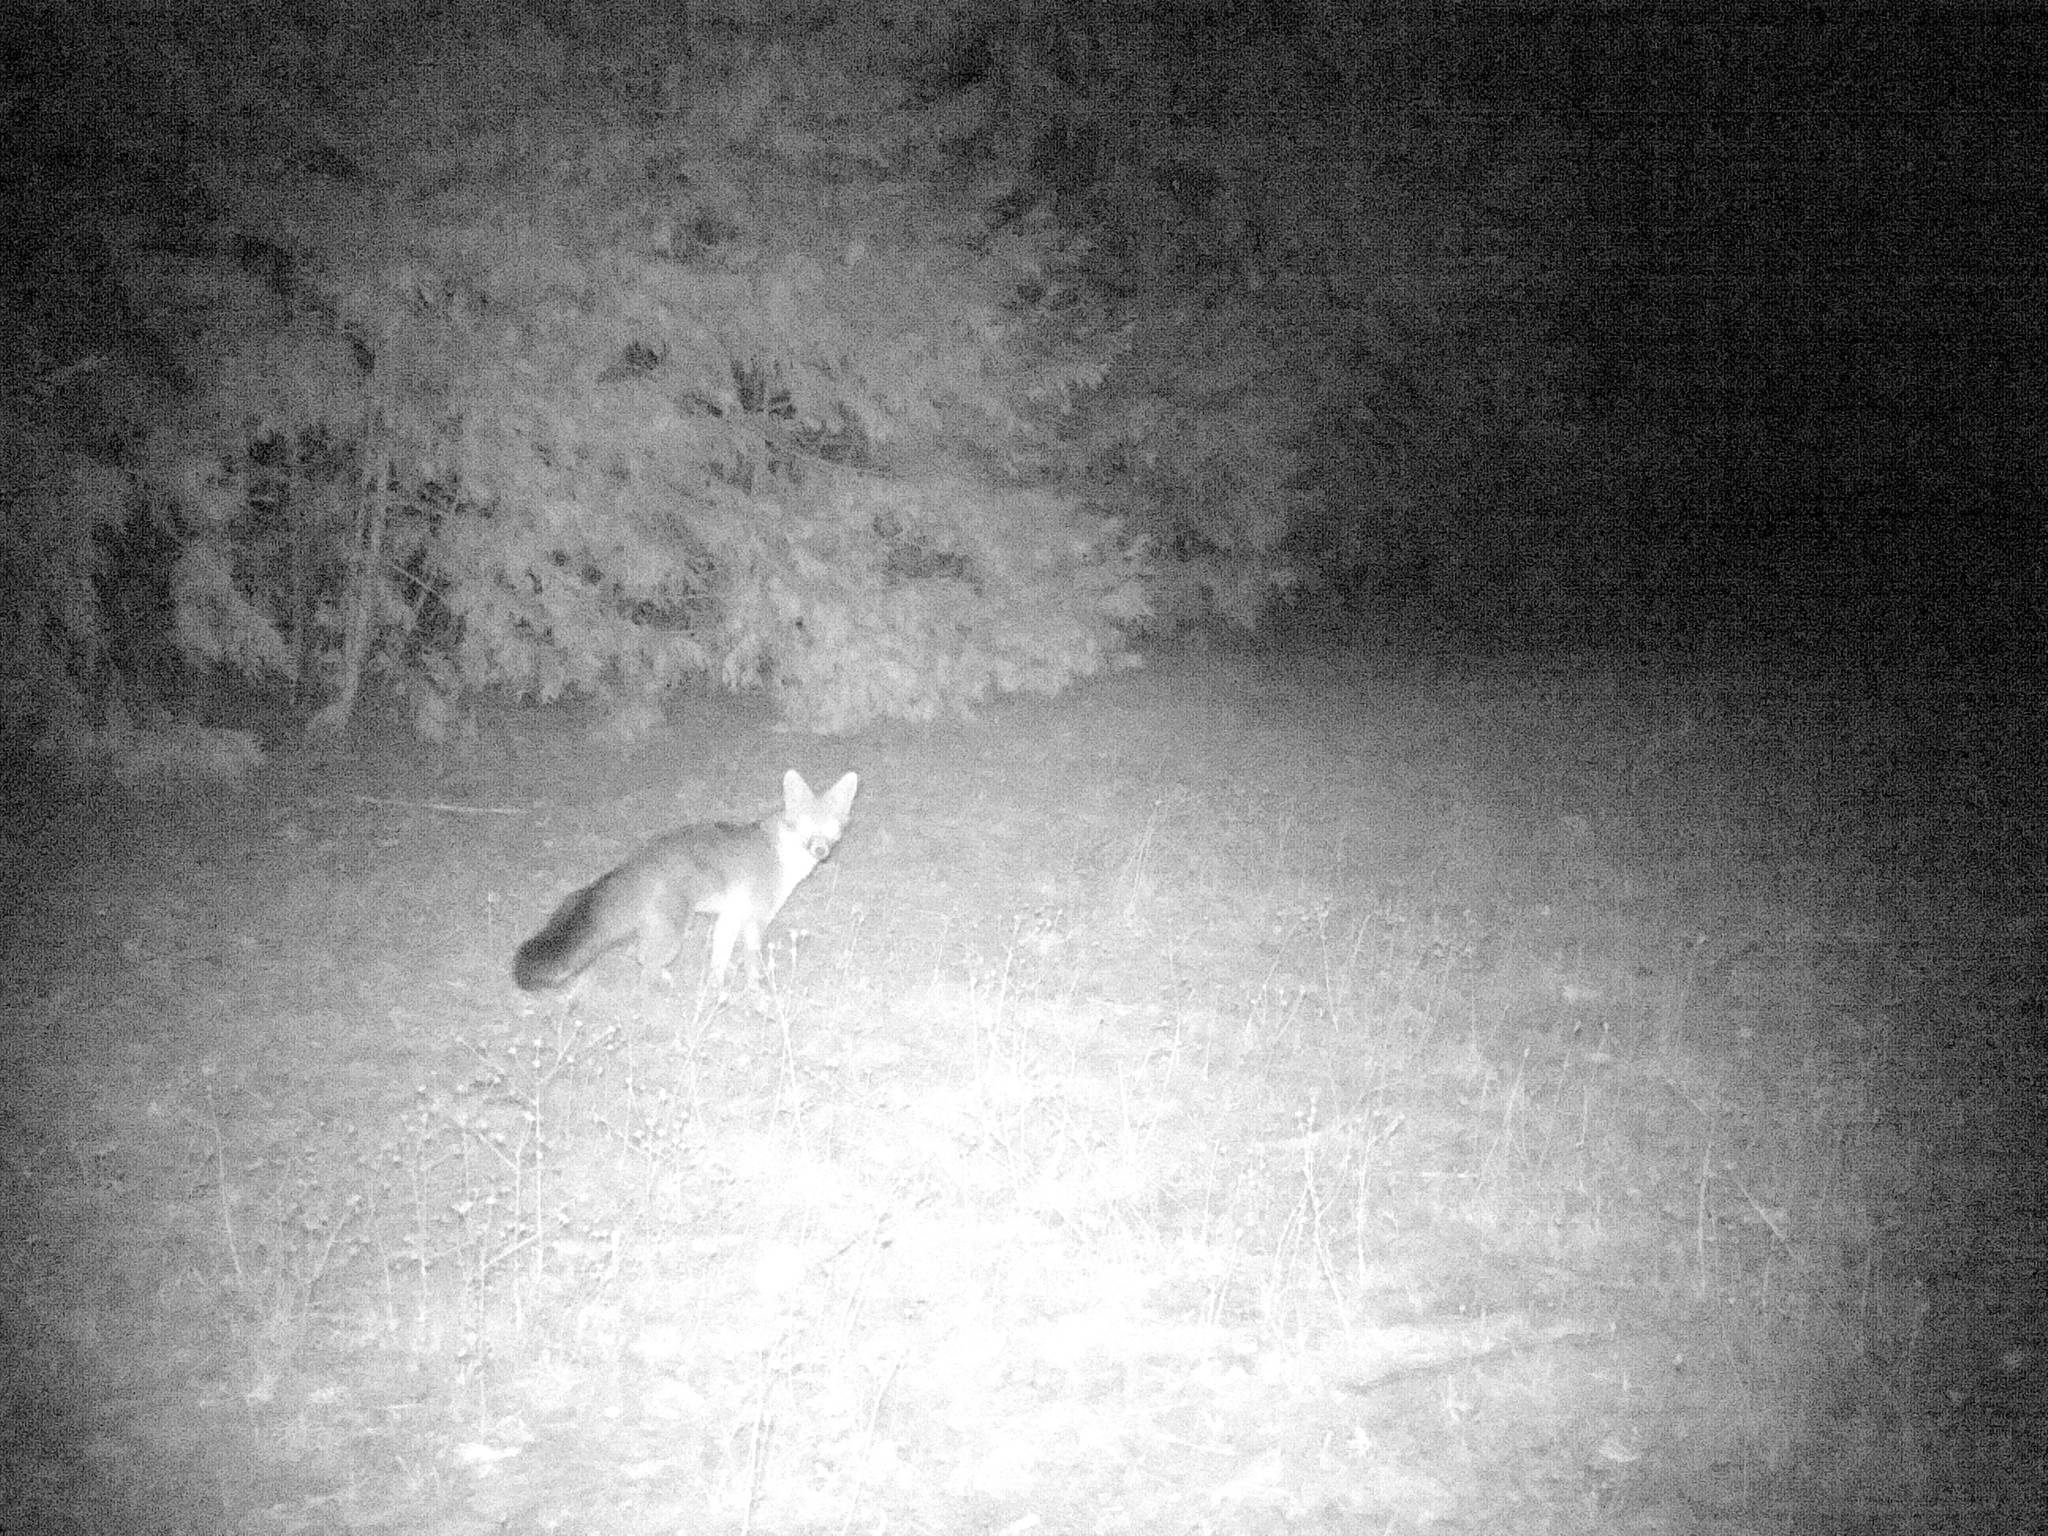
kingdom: Animalia
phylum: Chordata
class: Mammalia
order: Carnivora
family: Canidae
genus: Urocyon
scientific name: Urocyon cinereoargenteus
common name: Gray fox
